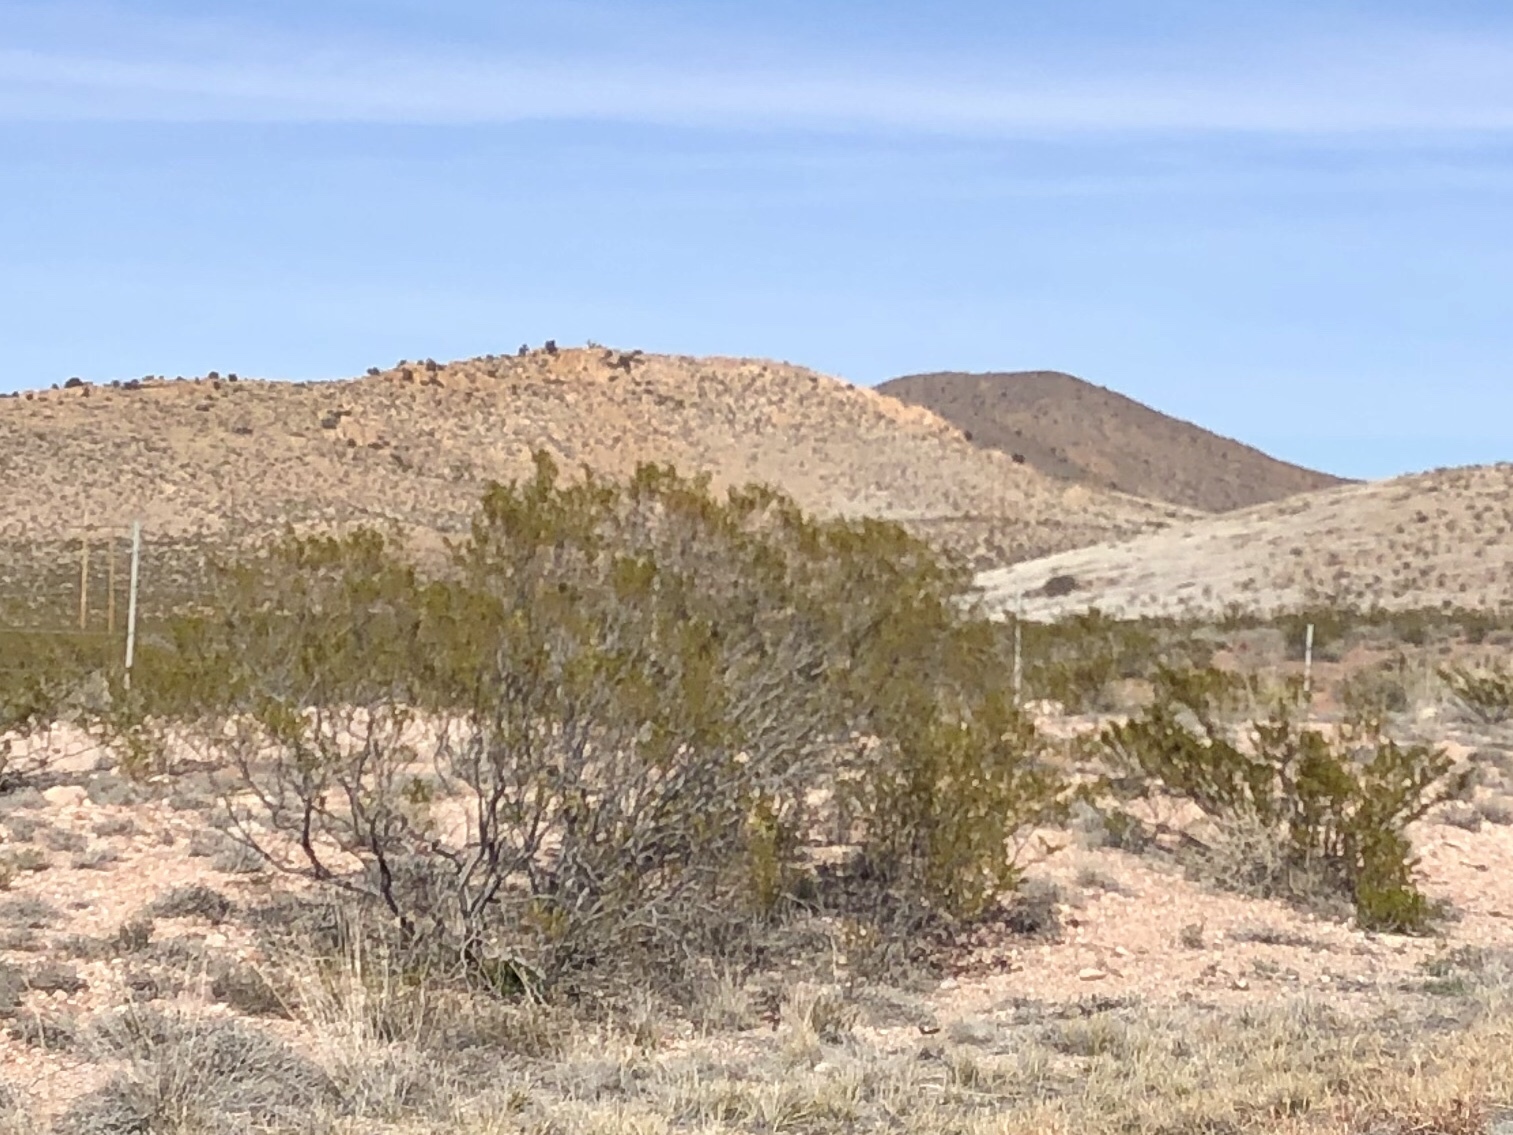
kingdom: Plantae
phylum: Tracheophyta
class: Magnoliopsida
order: Zygophyllales
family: Zygophyllaceae
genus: Larrea
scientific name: Larrea tridentata
